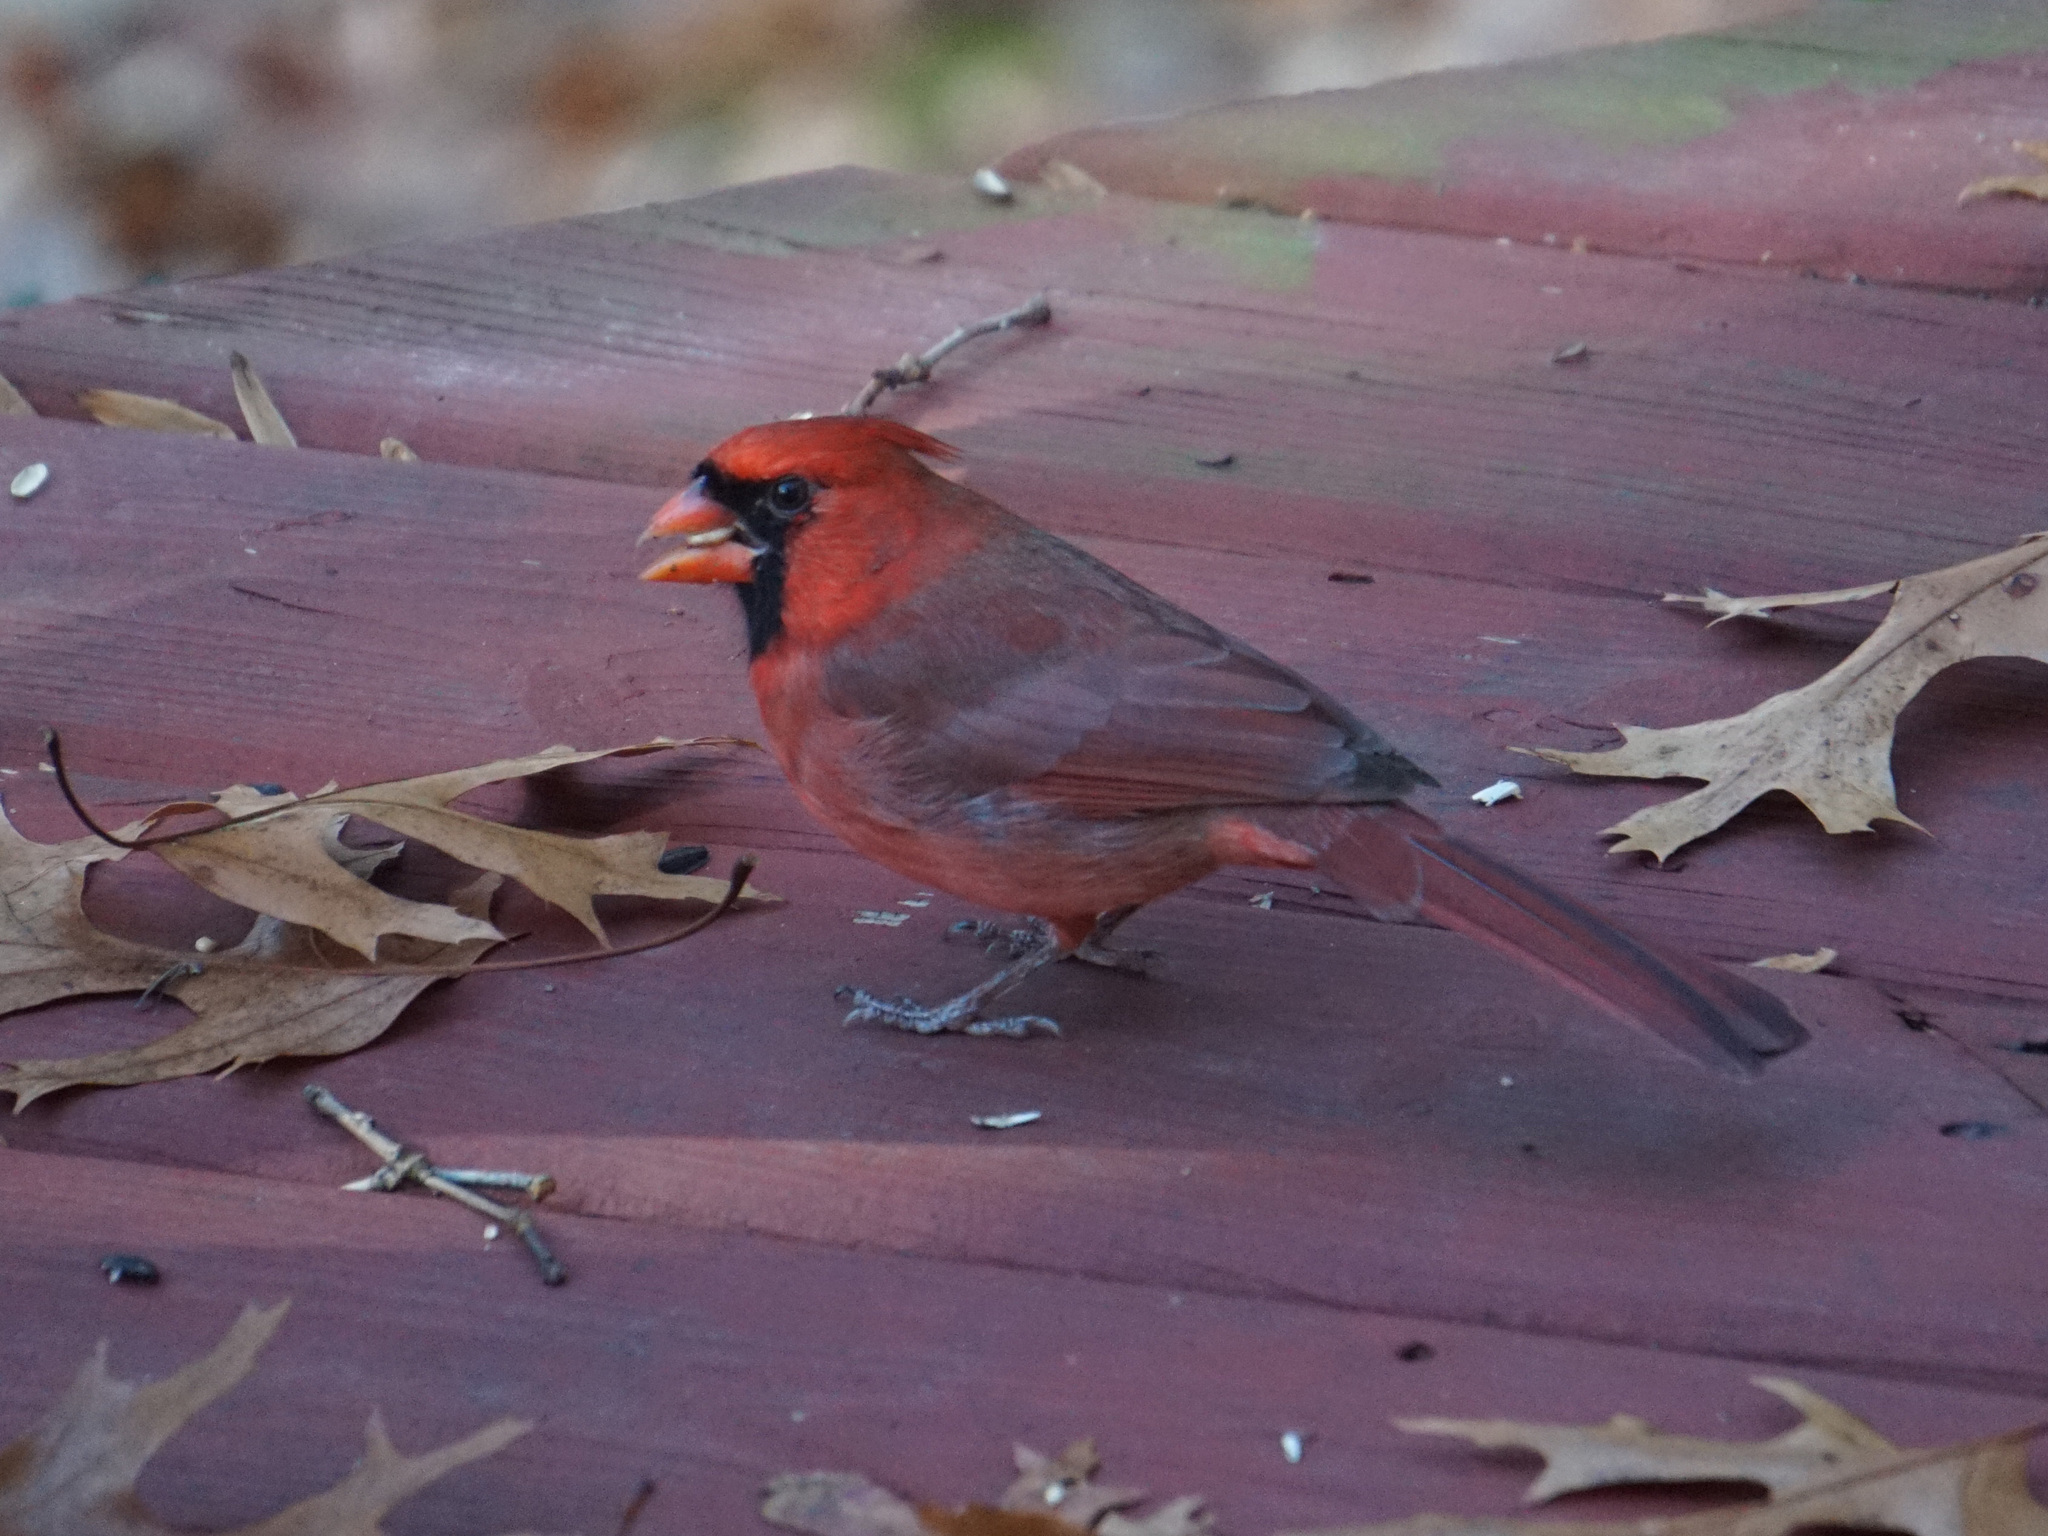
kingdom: Animalia
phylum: Chordata
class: Aves
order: Passeriformes
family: Cardinalidae
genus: Cardinalis
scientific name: Cardinalis cardinalis
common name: Northern cardinal
